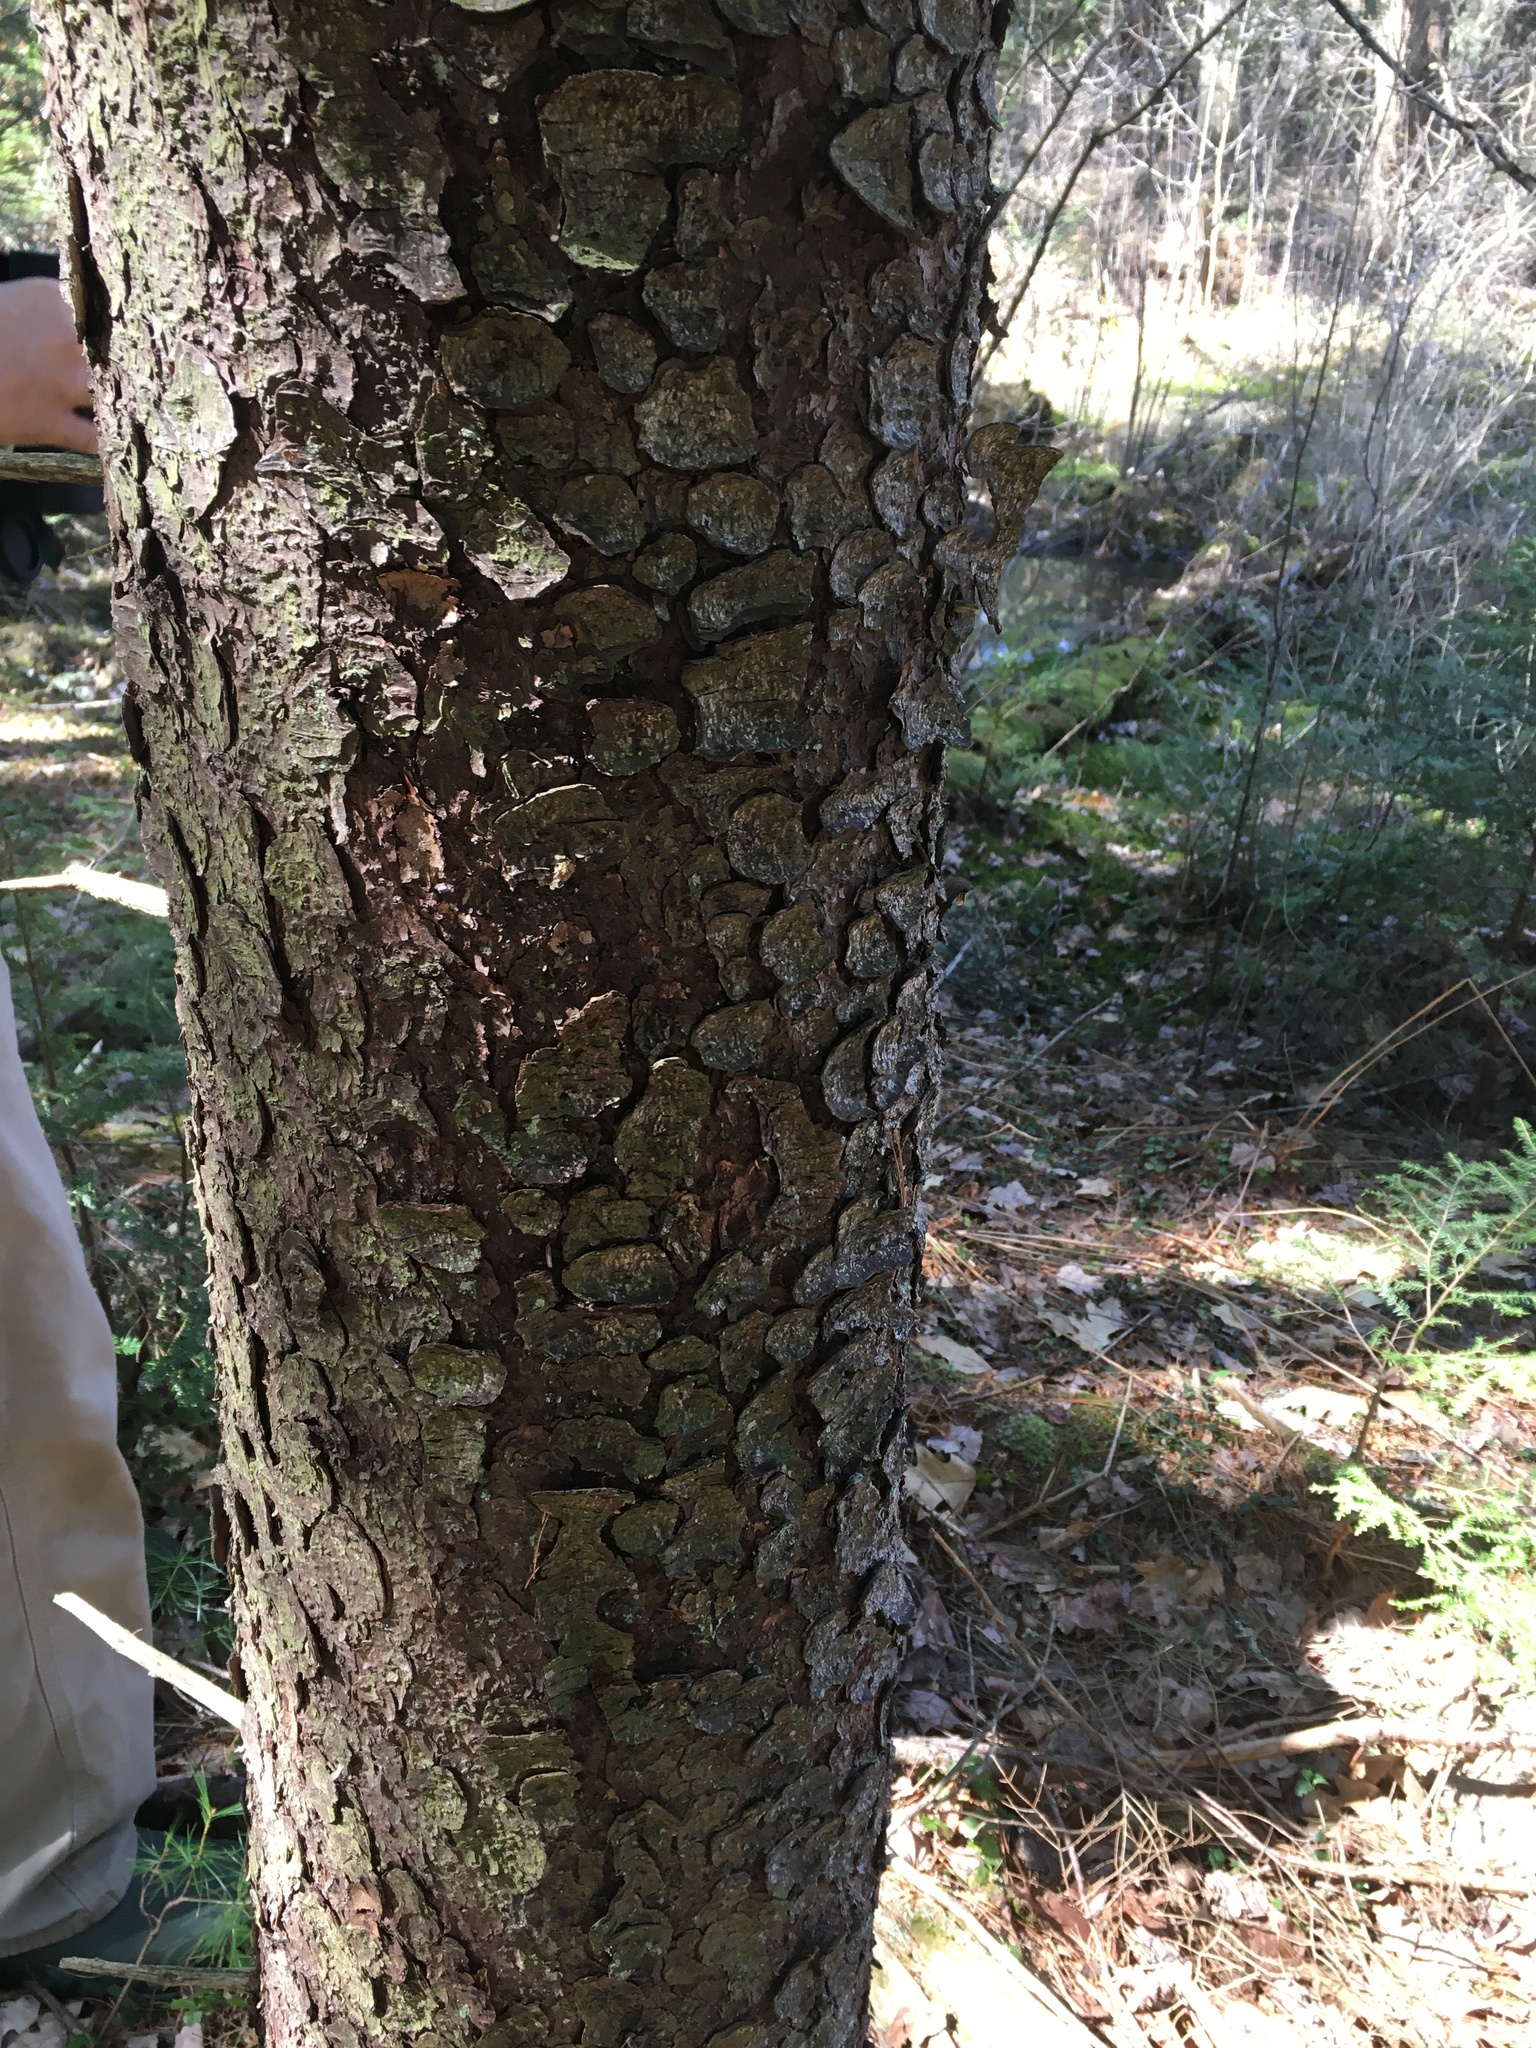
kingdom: Plantae
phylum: Tracheophyta
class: Pinopsida
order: Pinales
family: Pinaceae
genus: Picea
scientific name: Picea rubens
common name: Red spruce
